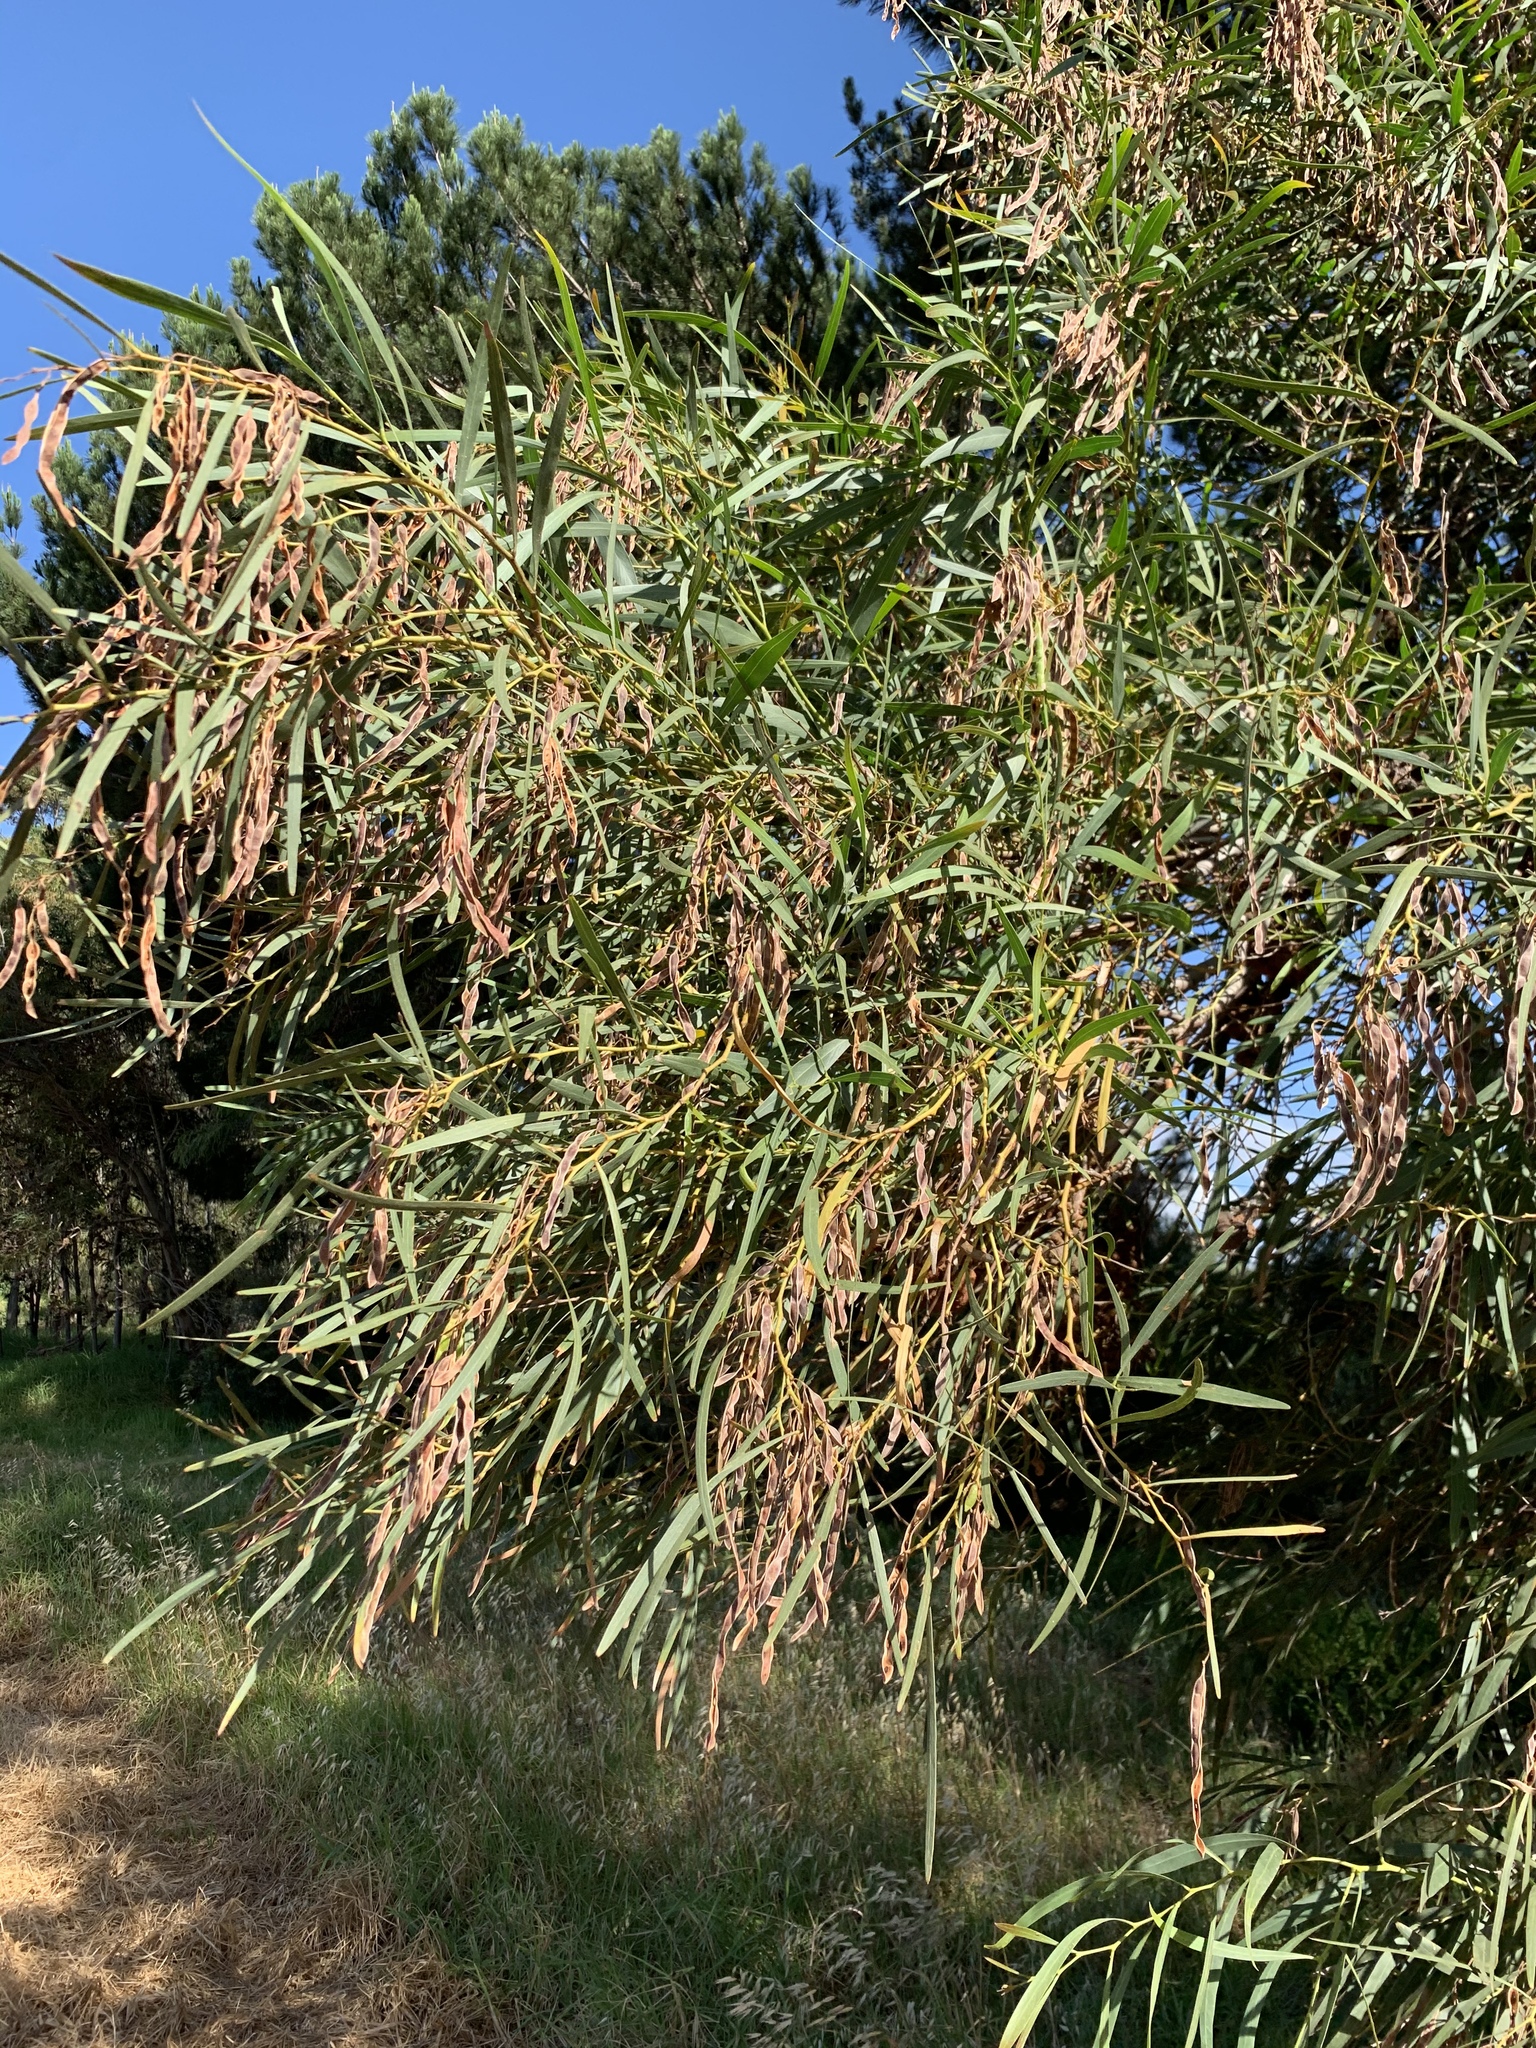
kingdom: Plantae
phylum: Tracheophyta
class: Magnoliopsida
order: Fabales
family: Fabaceae
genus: Acacia
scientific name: Acacia saligna
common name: Orange wattle
